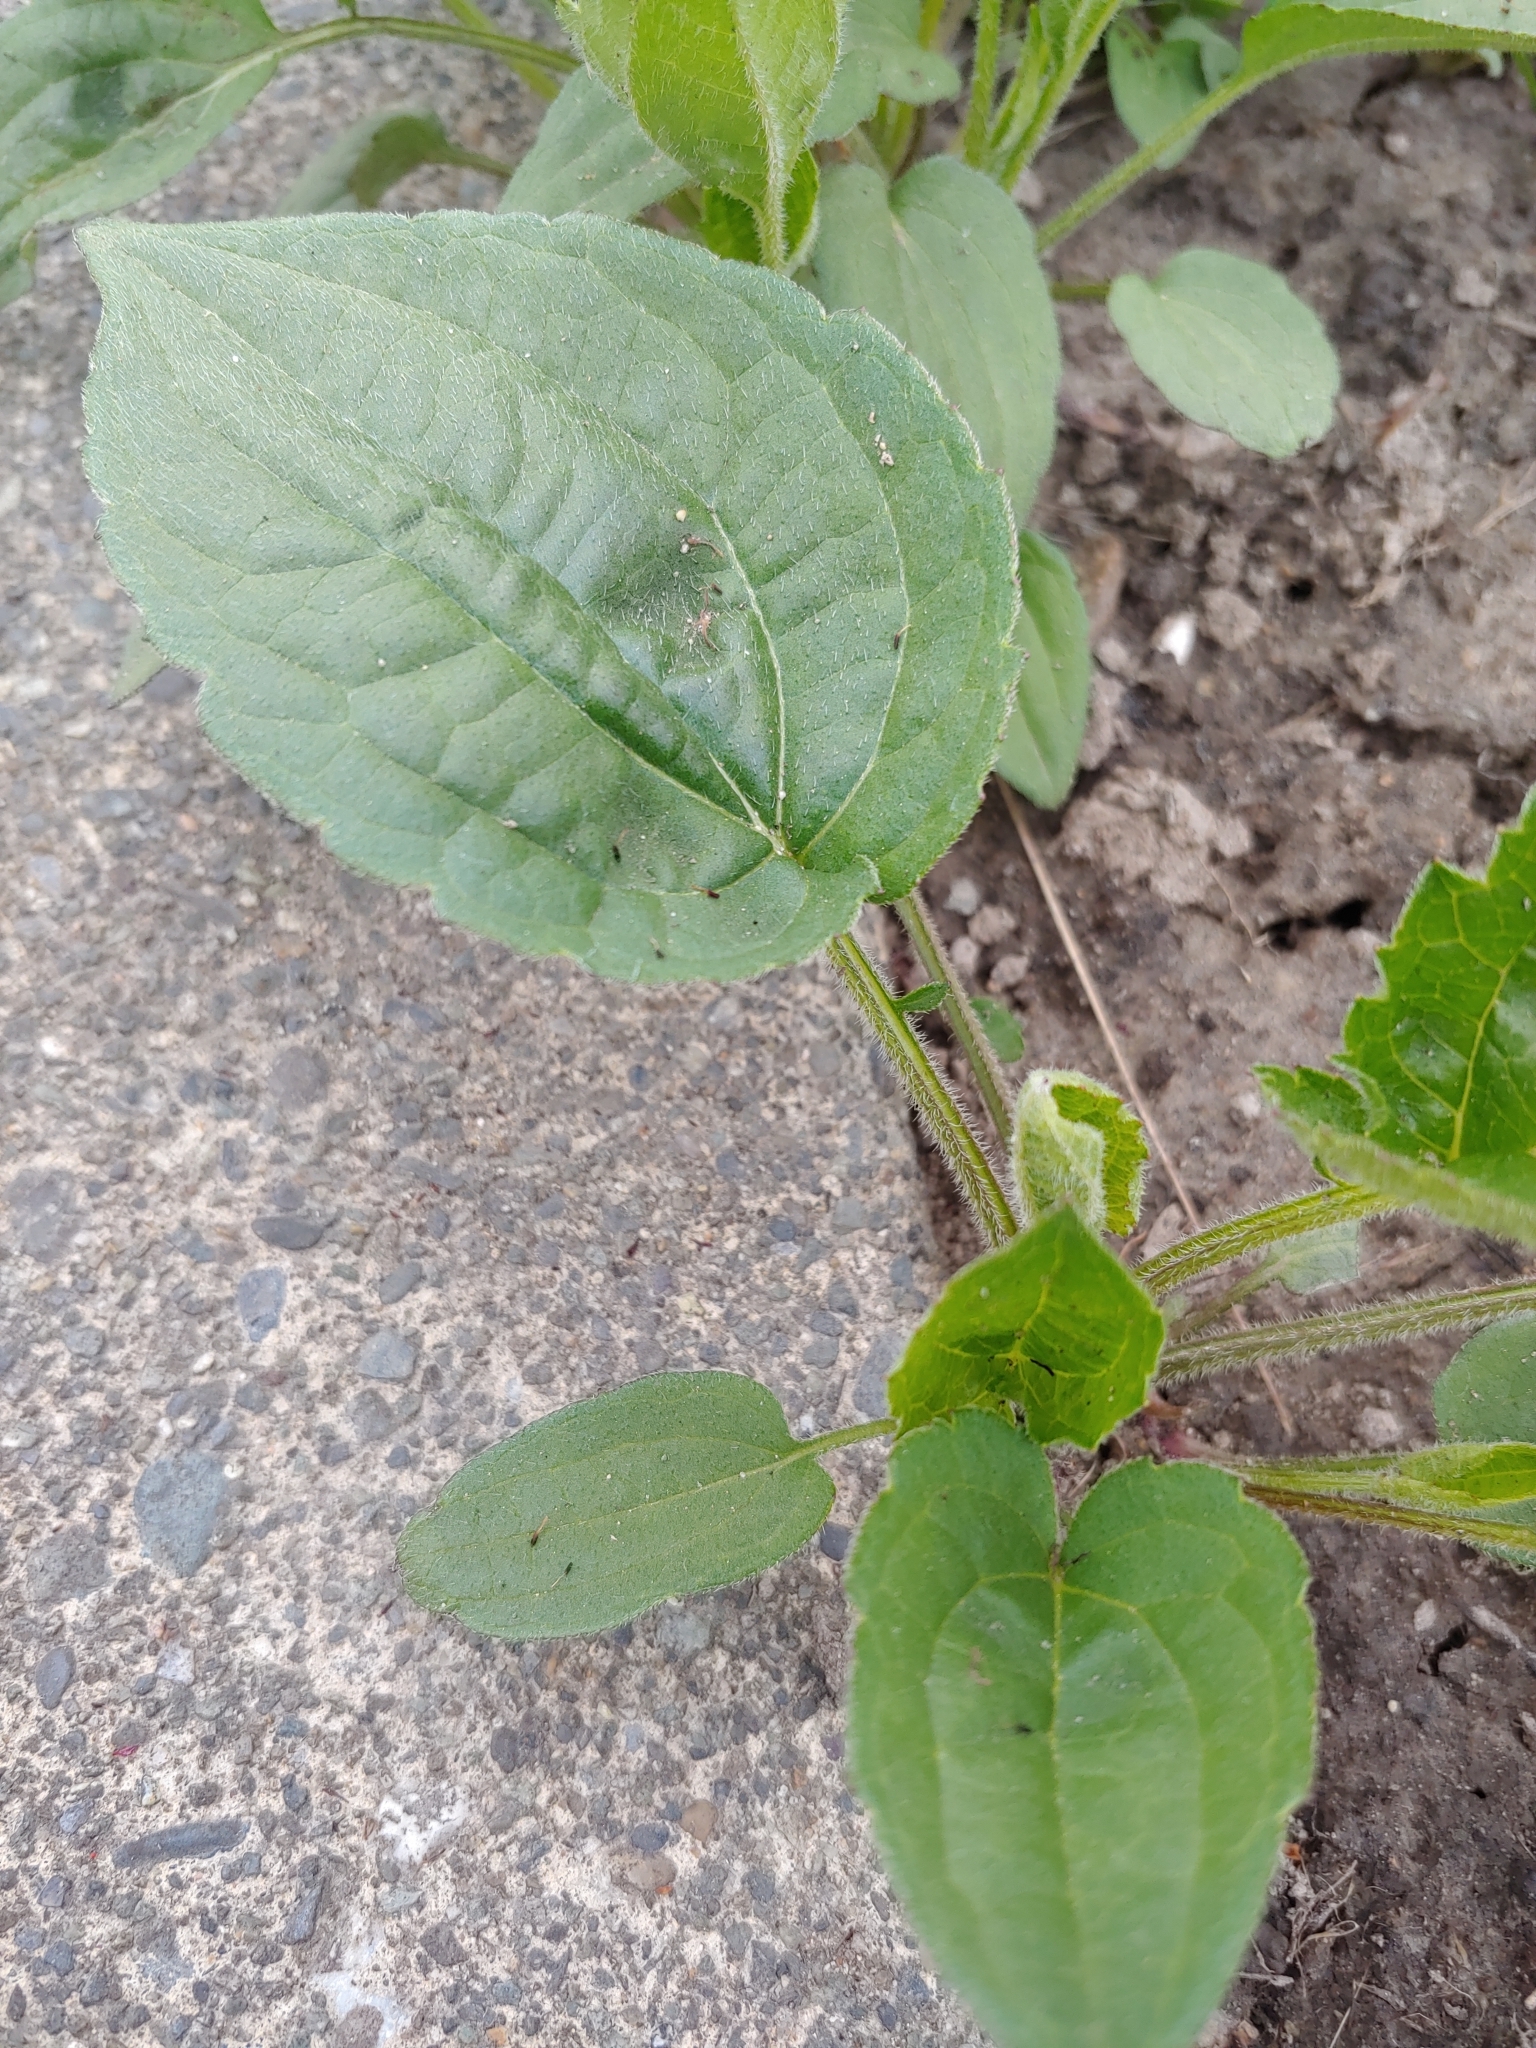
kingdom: Plantae
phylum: Tracheophyta
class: Magnoliopsida
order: Lamiales
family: Plantaginaceae
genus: Plantago
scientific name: Plantago major
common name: Common plantain
